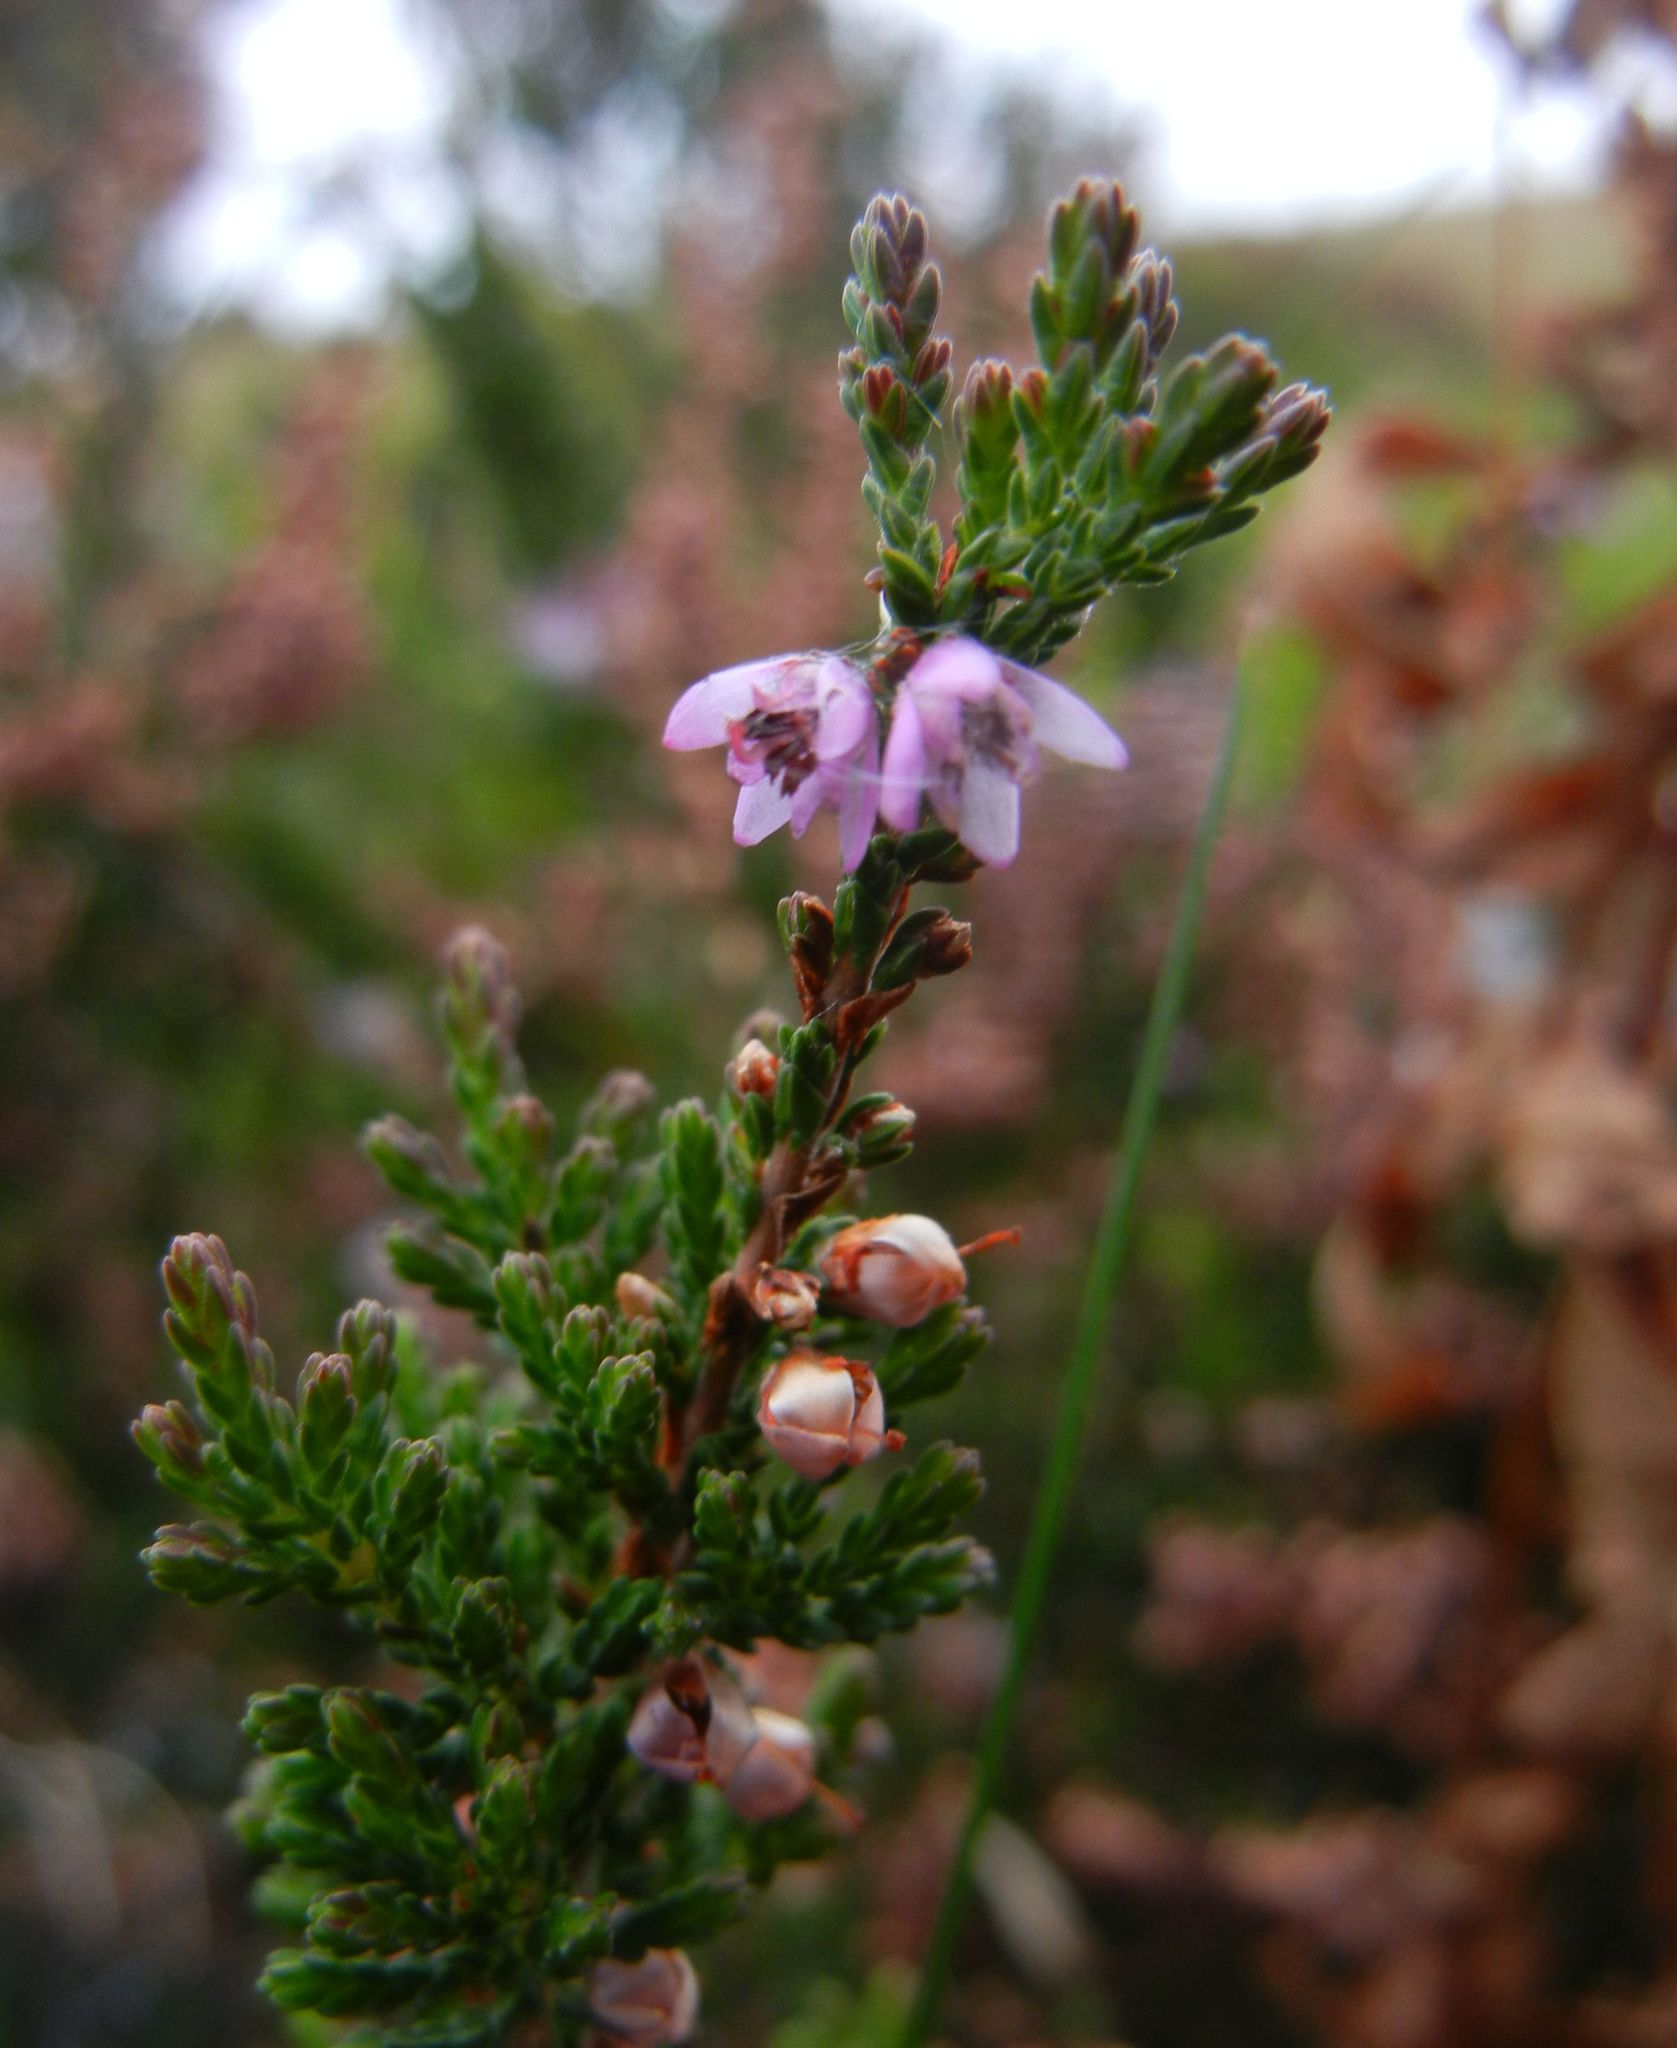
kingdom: Plantae
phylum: Tracheophyta
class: Magnoliopsida
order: Ericales
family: Ericaceae
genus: Calluna
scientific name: Calluna vulgaris
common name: Heather
